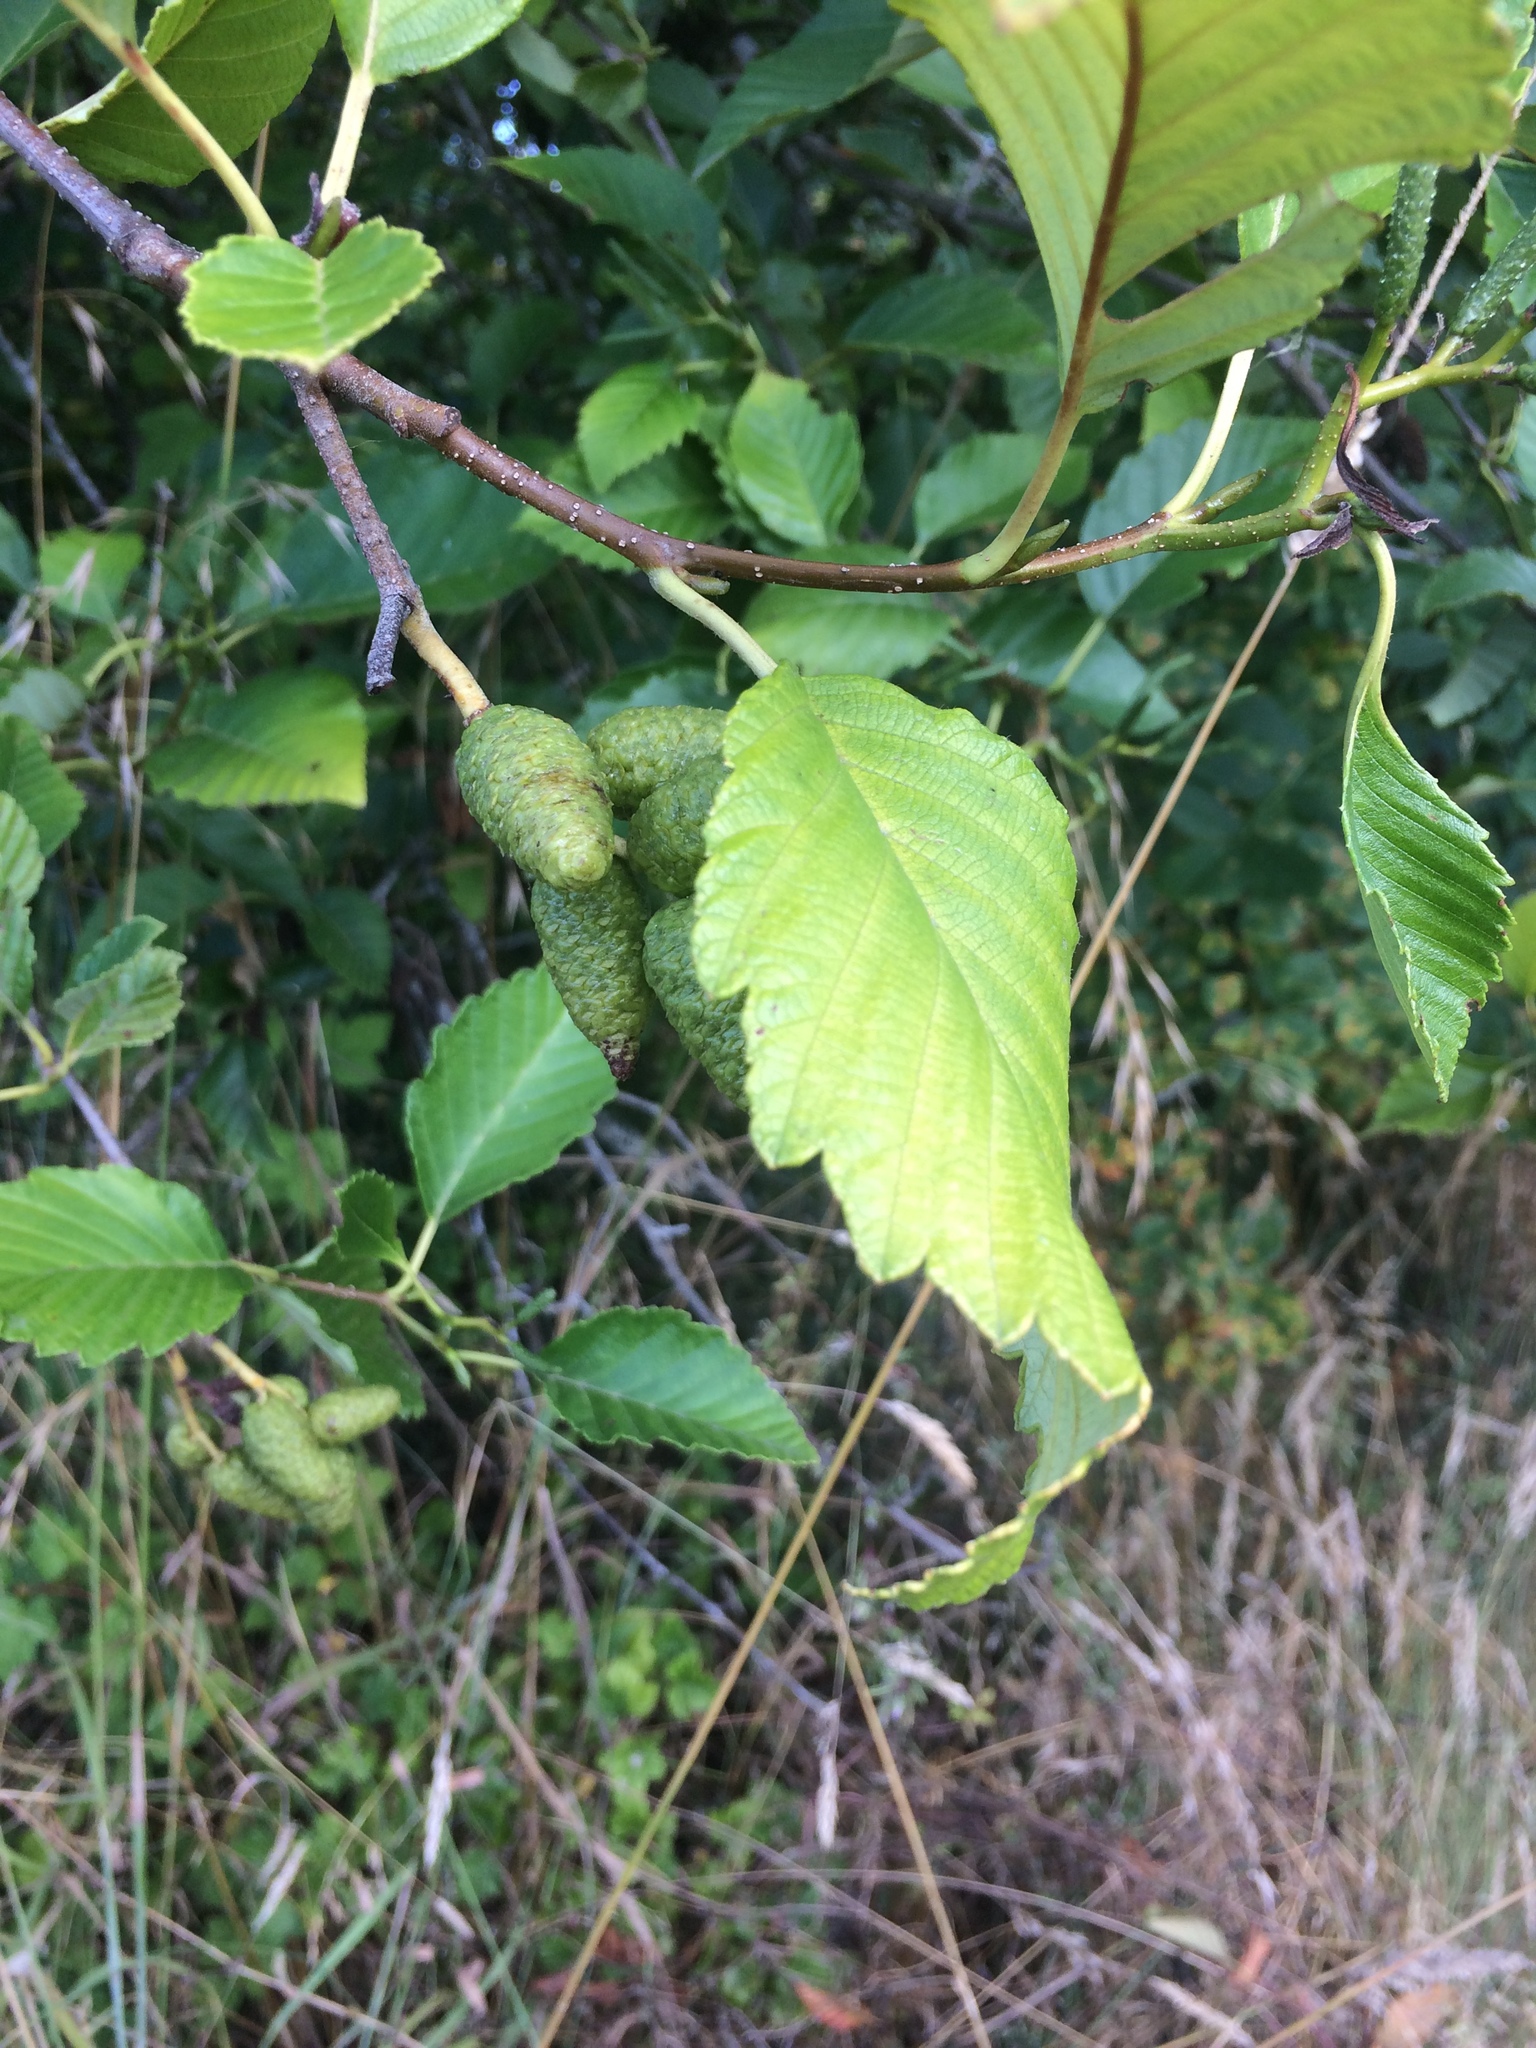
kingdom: Plantae
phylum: Tracheophyta
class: Magnoliopsida
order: Fagales
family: Betulaceae
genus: Alnus
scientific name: Alnus rubra
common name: Red alder
